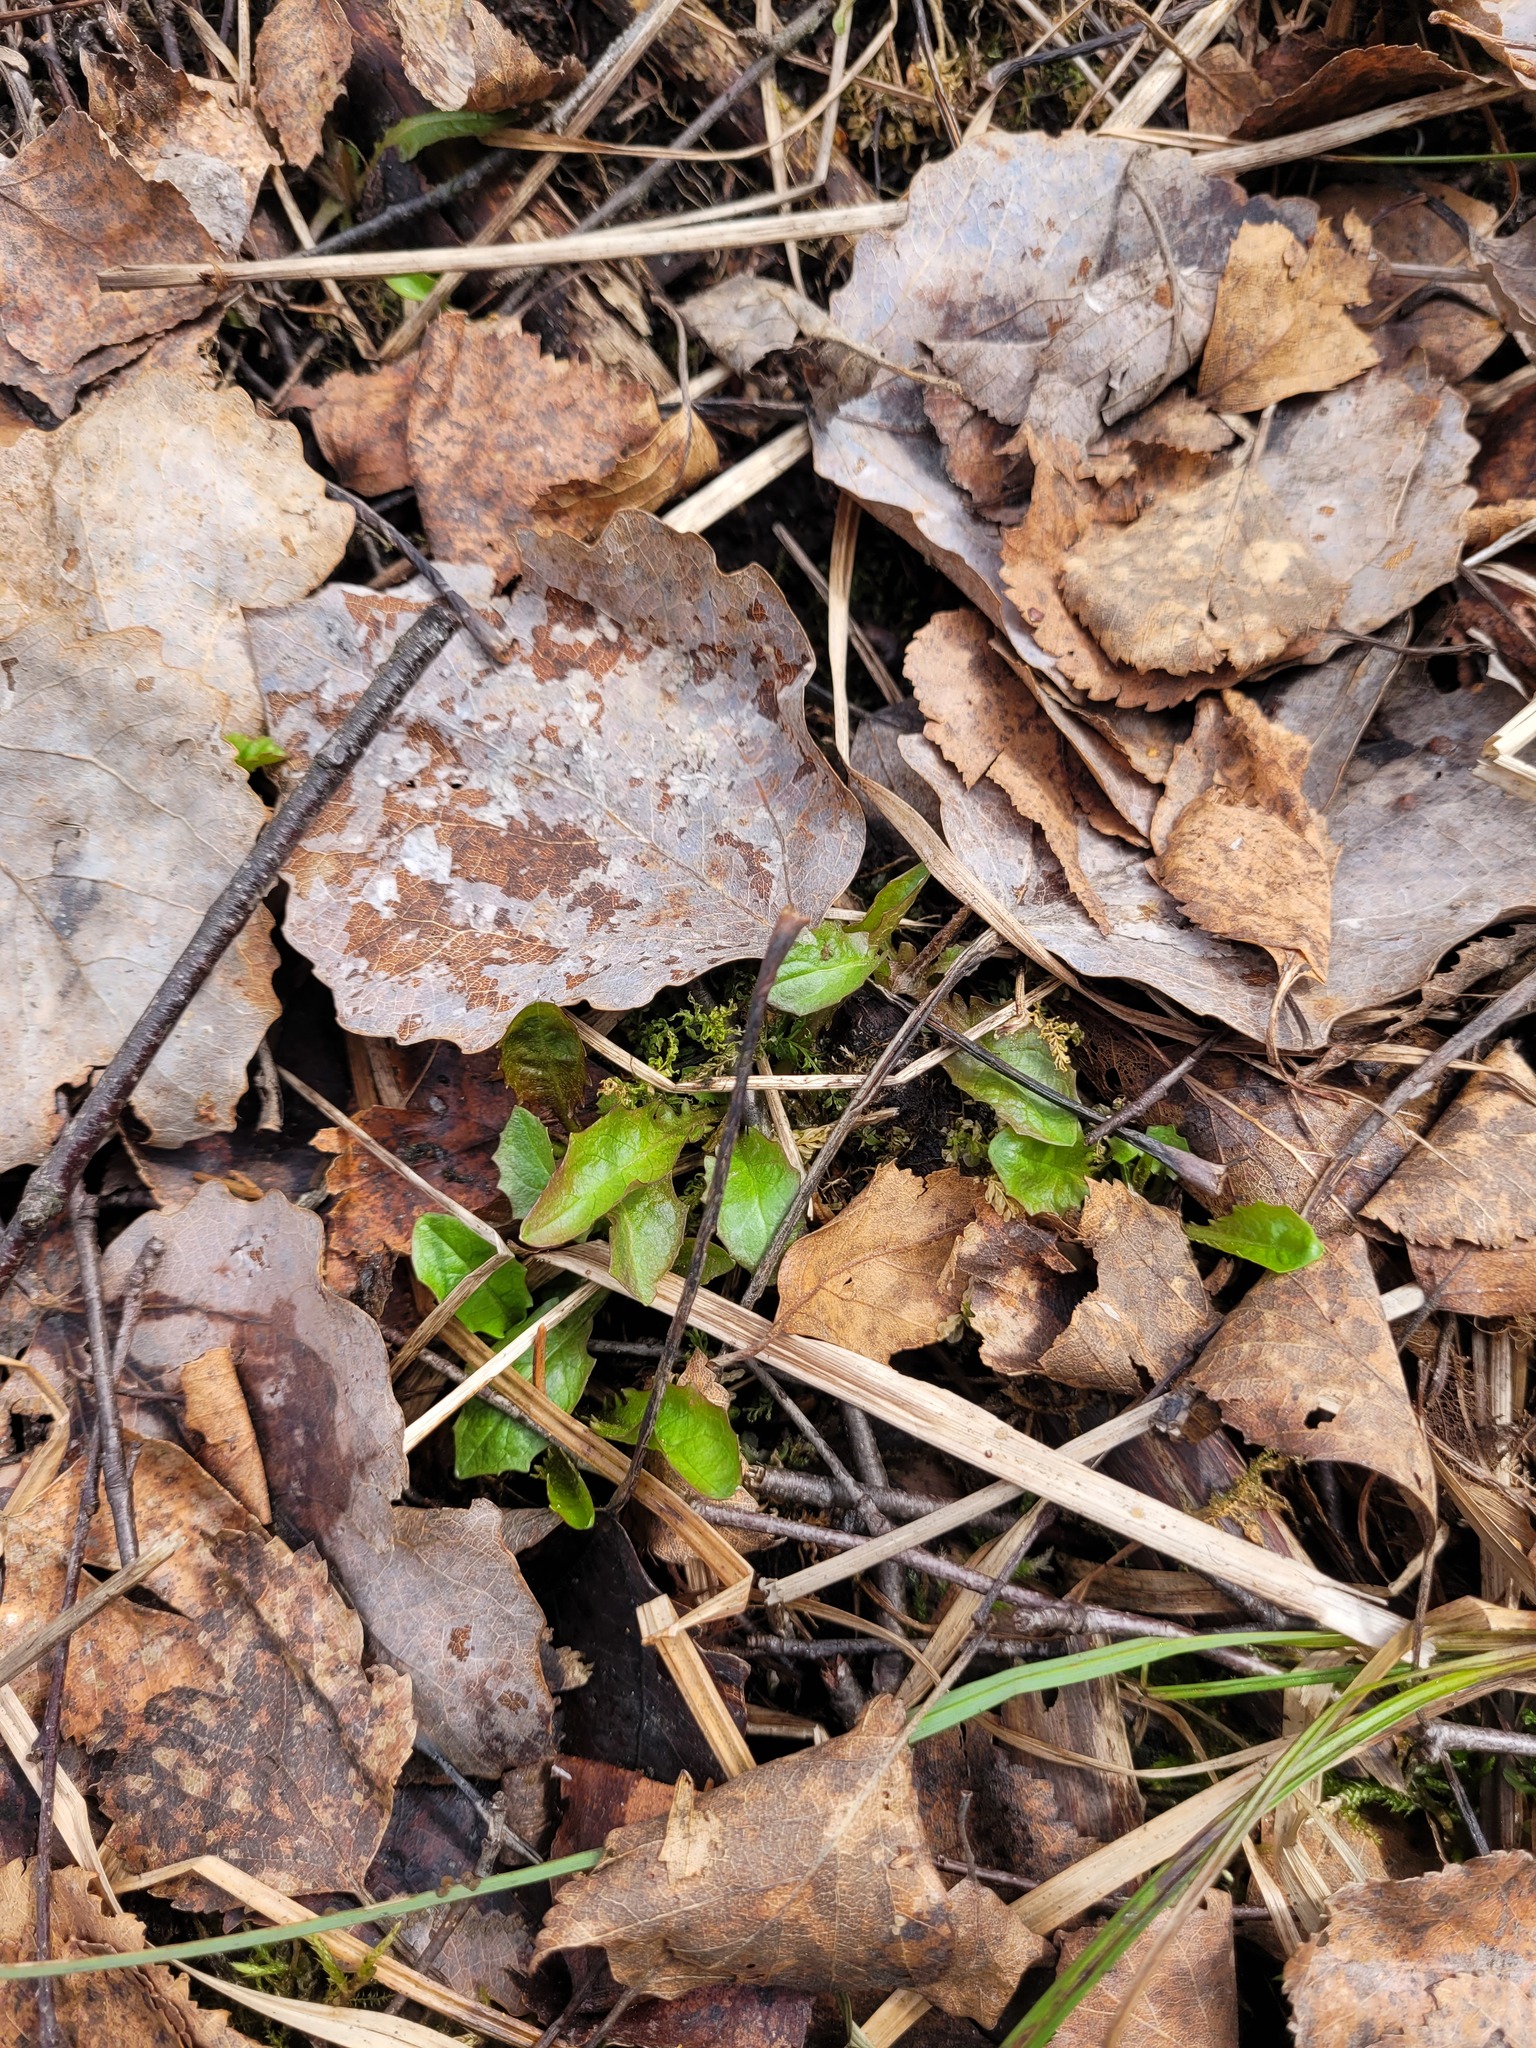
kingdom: Plantae
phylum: Tracheophyta
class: Magnoliopsida
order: Asterales
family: Asteraceae
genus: Crepis
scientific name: Crepis paludosa
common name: Marsh hawk's-beard
